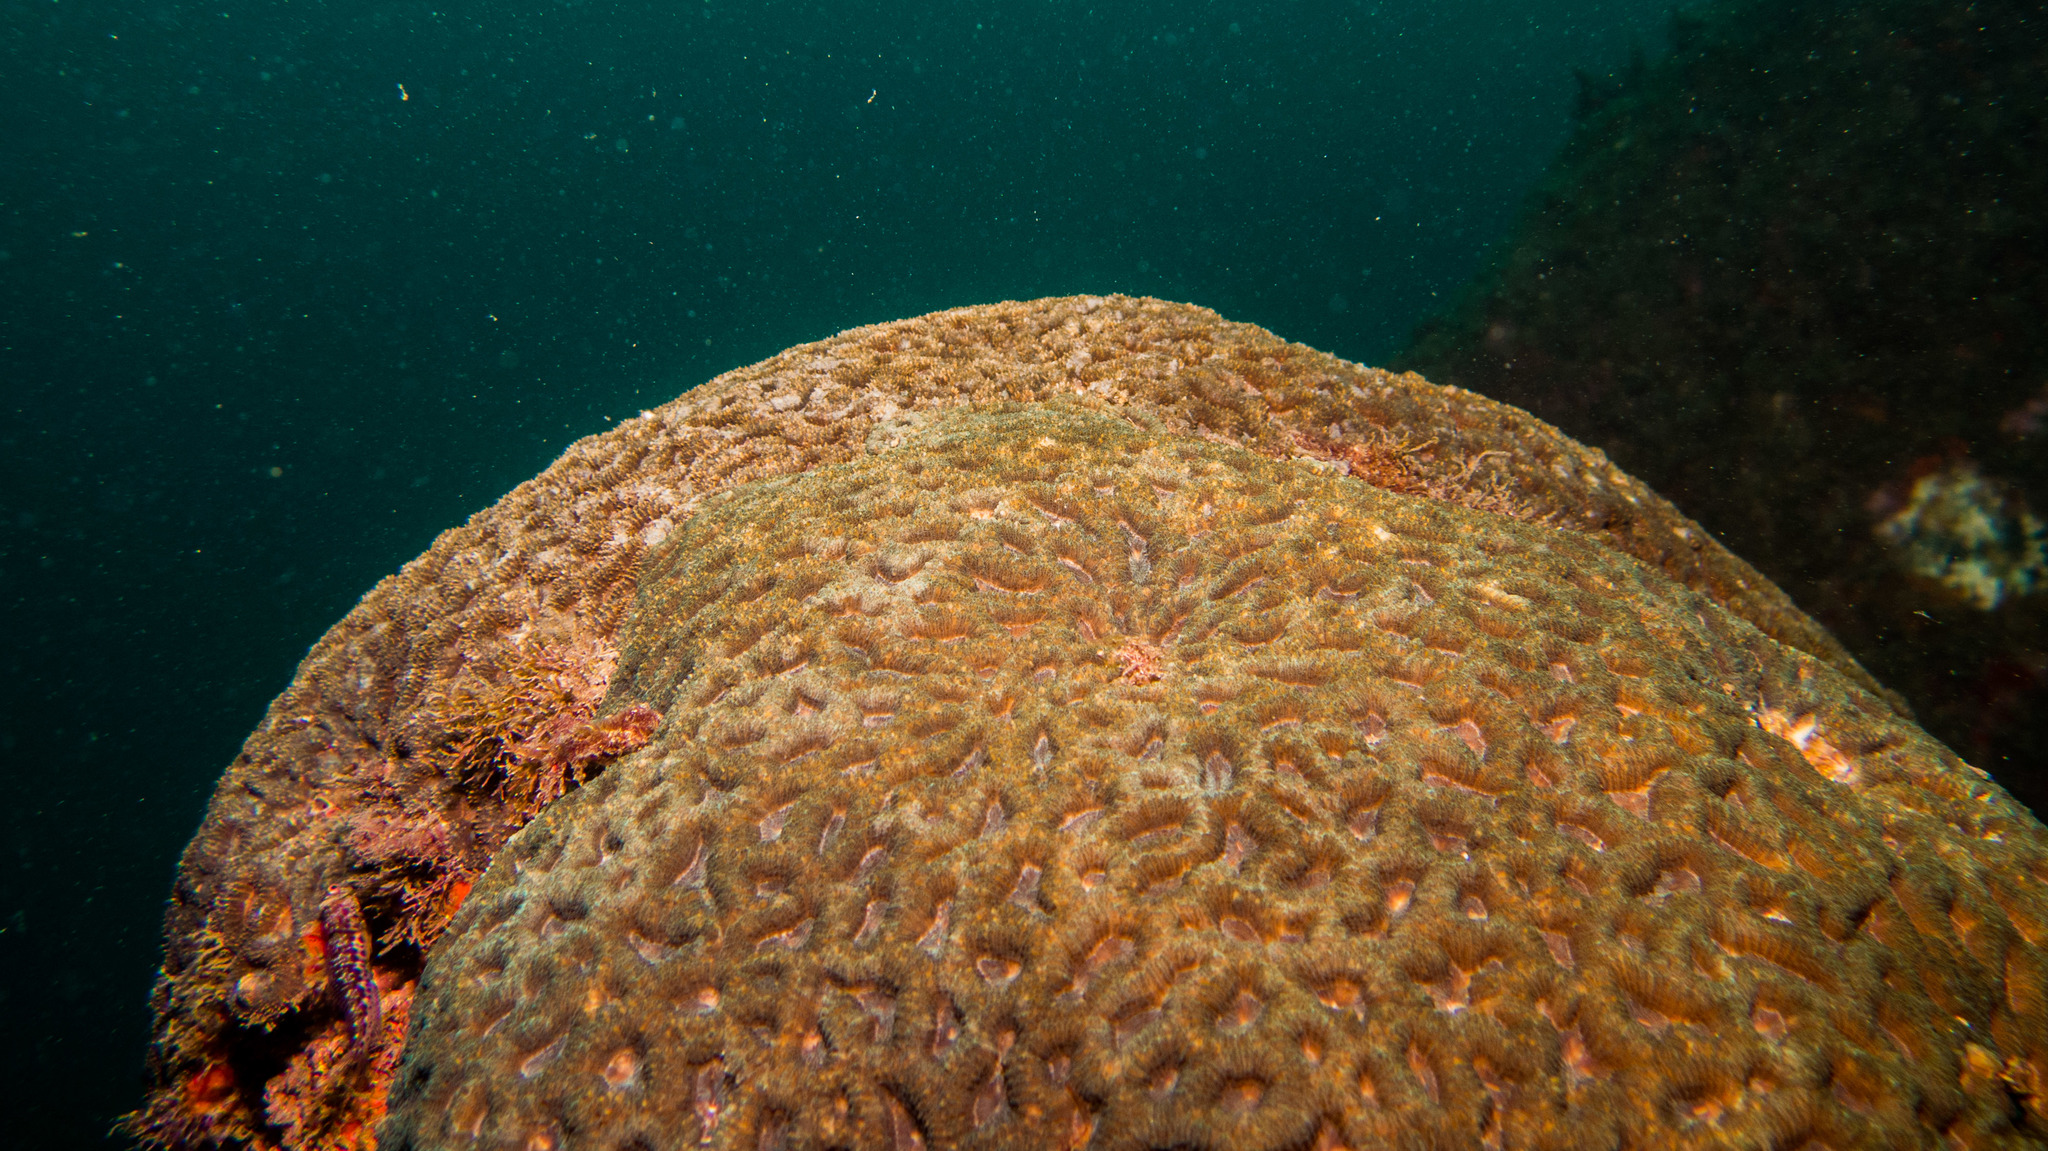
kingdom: Animalia
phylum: Cnidaria
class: Anthozoa
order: Scleractinia
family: Faviidae
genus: Mussismilia
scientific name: Mussismilia hispida
